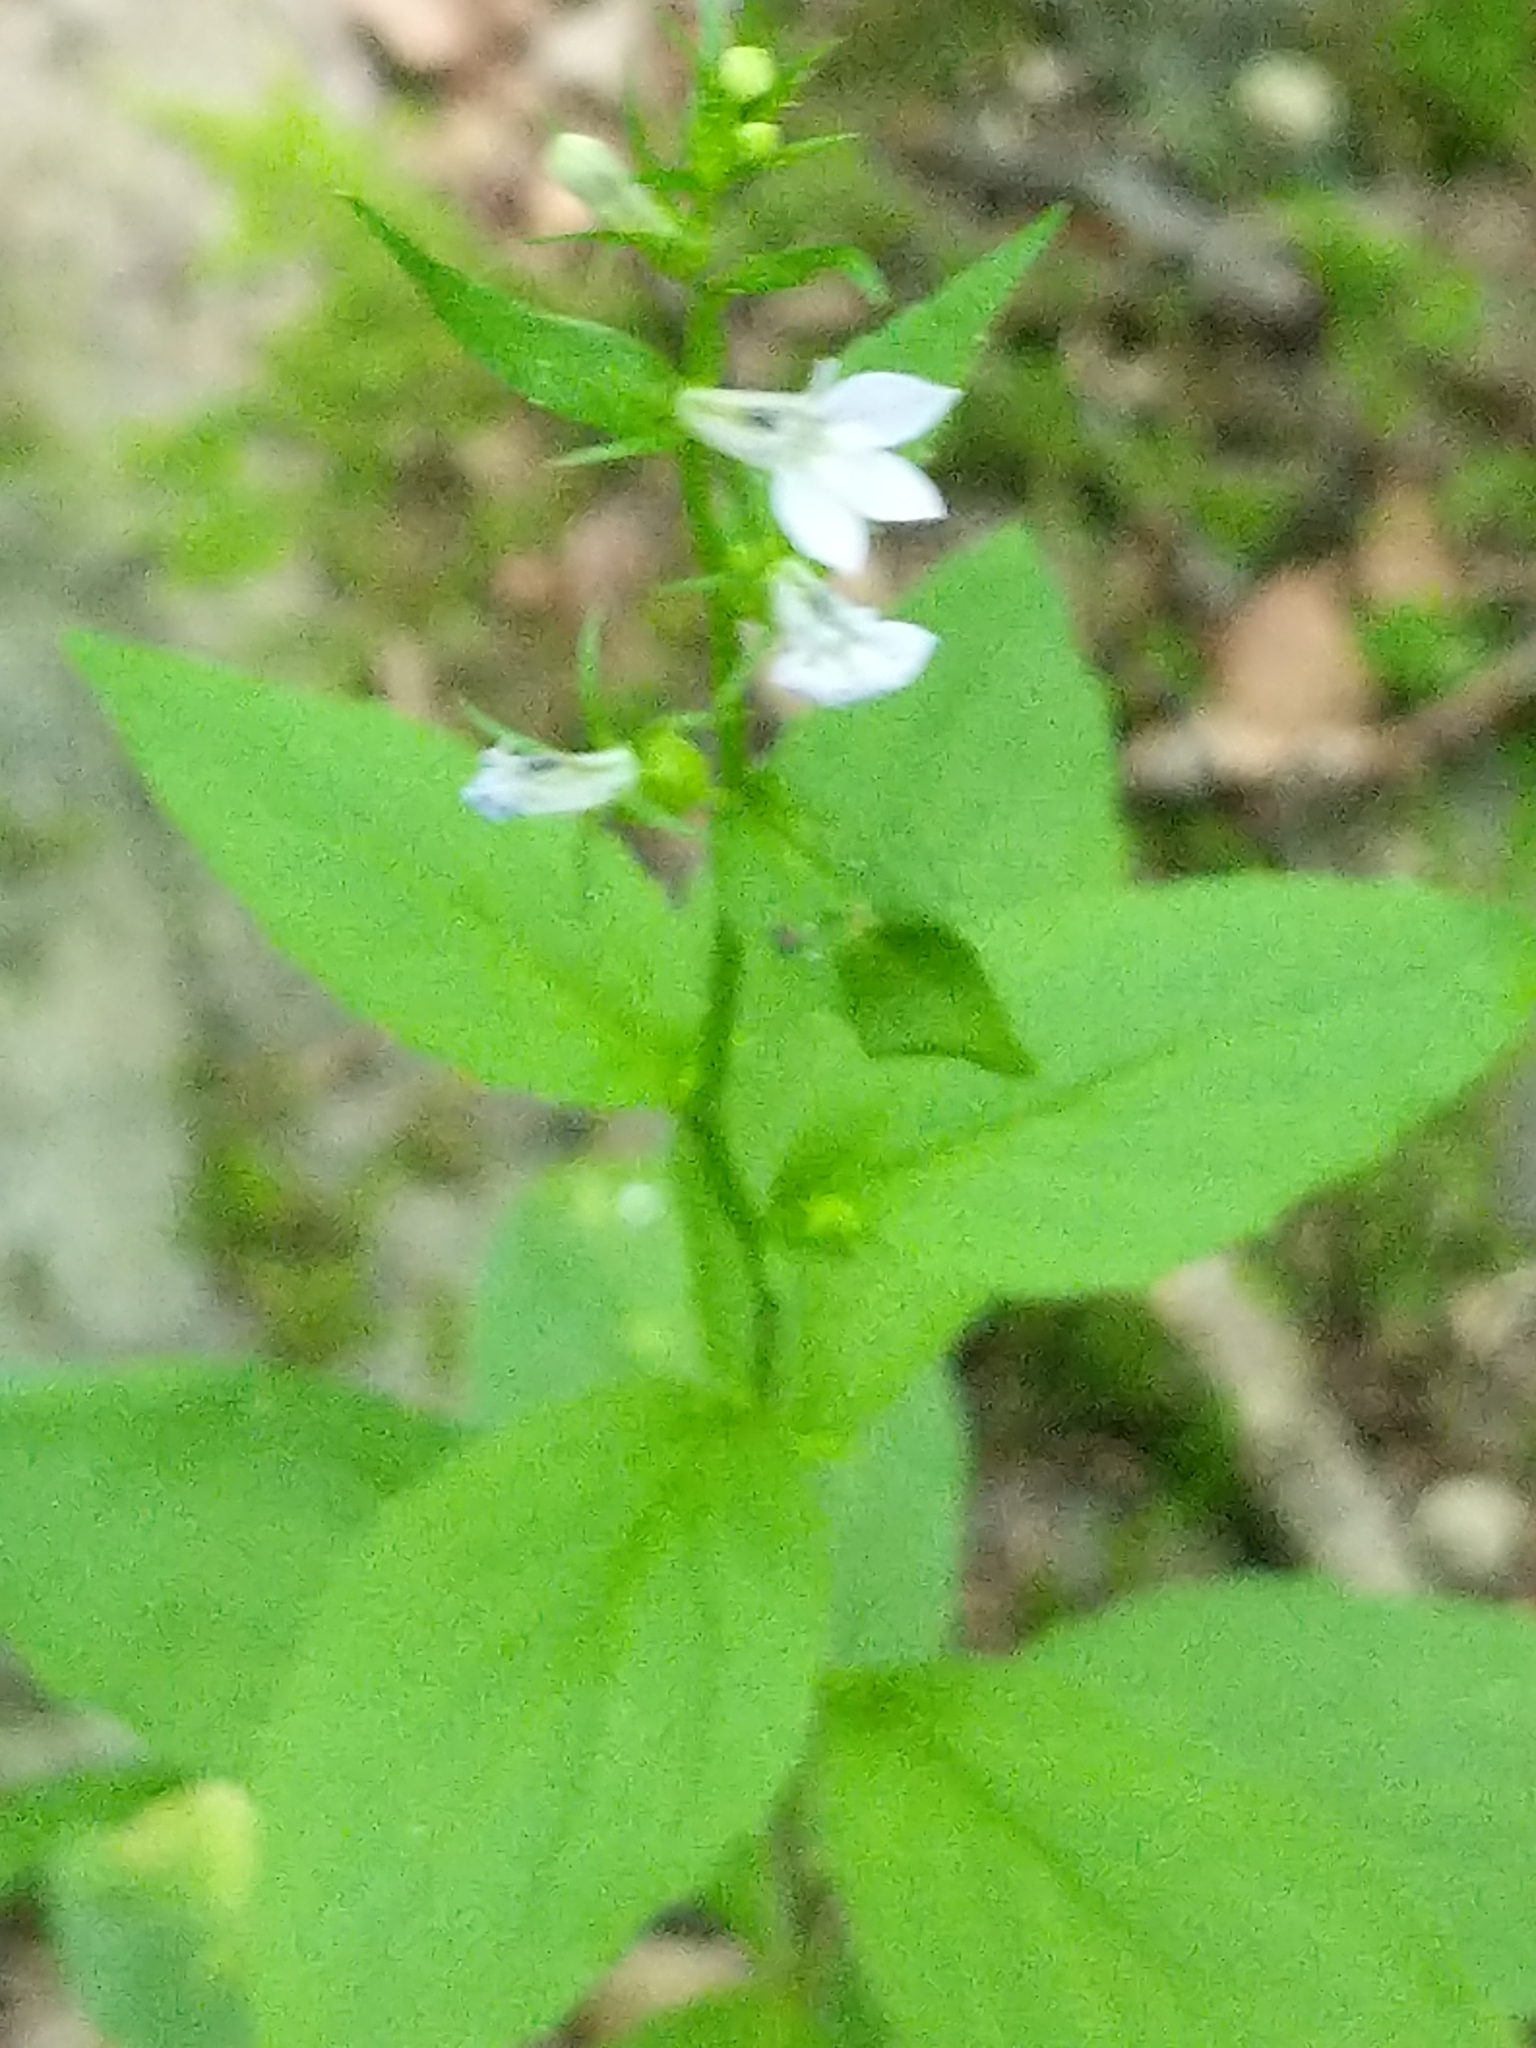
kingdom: Plantae
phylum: Tracheophyta
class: Magnoliopsida
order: Asterales
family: Campanulaceae
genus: Lobelia
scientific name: Lobelia inflata
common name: Indian tobacco
